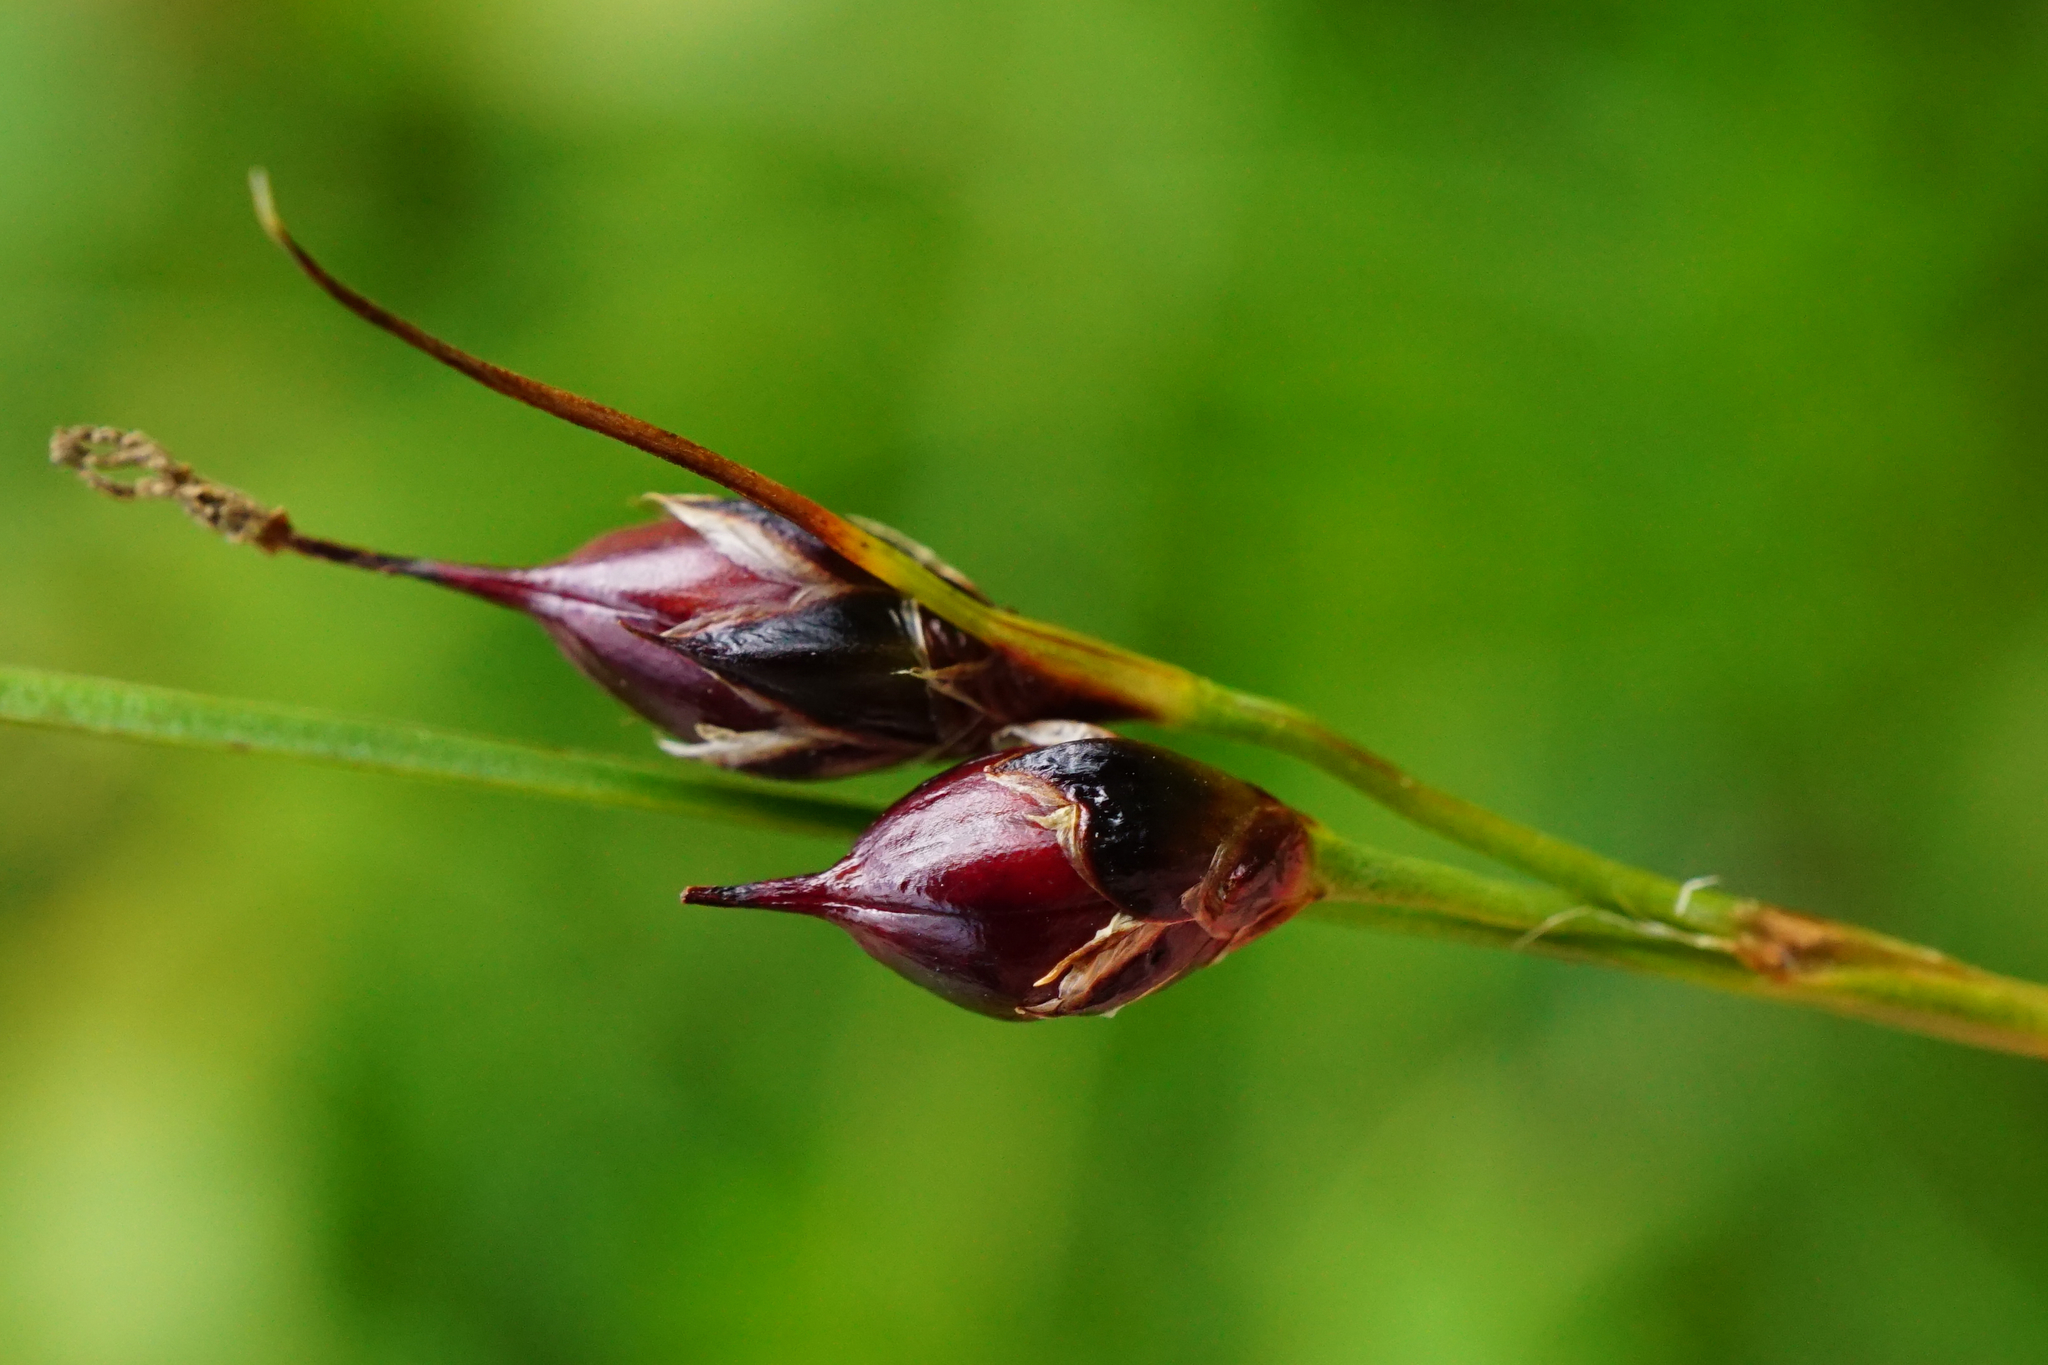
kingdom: Plantae
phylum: Tracheophyta
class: Liliopsida
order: Poales
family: Juncaceae
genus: Oreojuncus
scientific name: Oreojuncus monanthos
